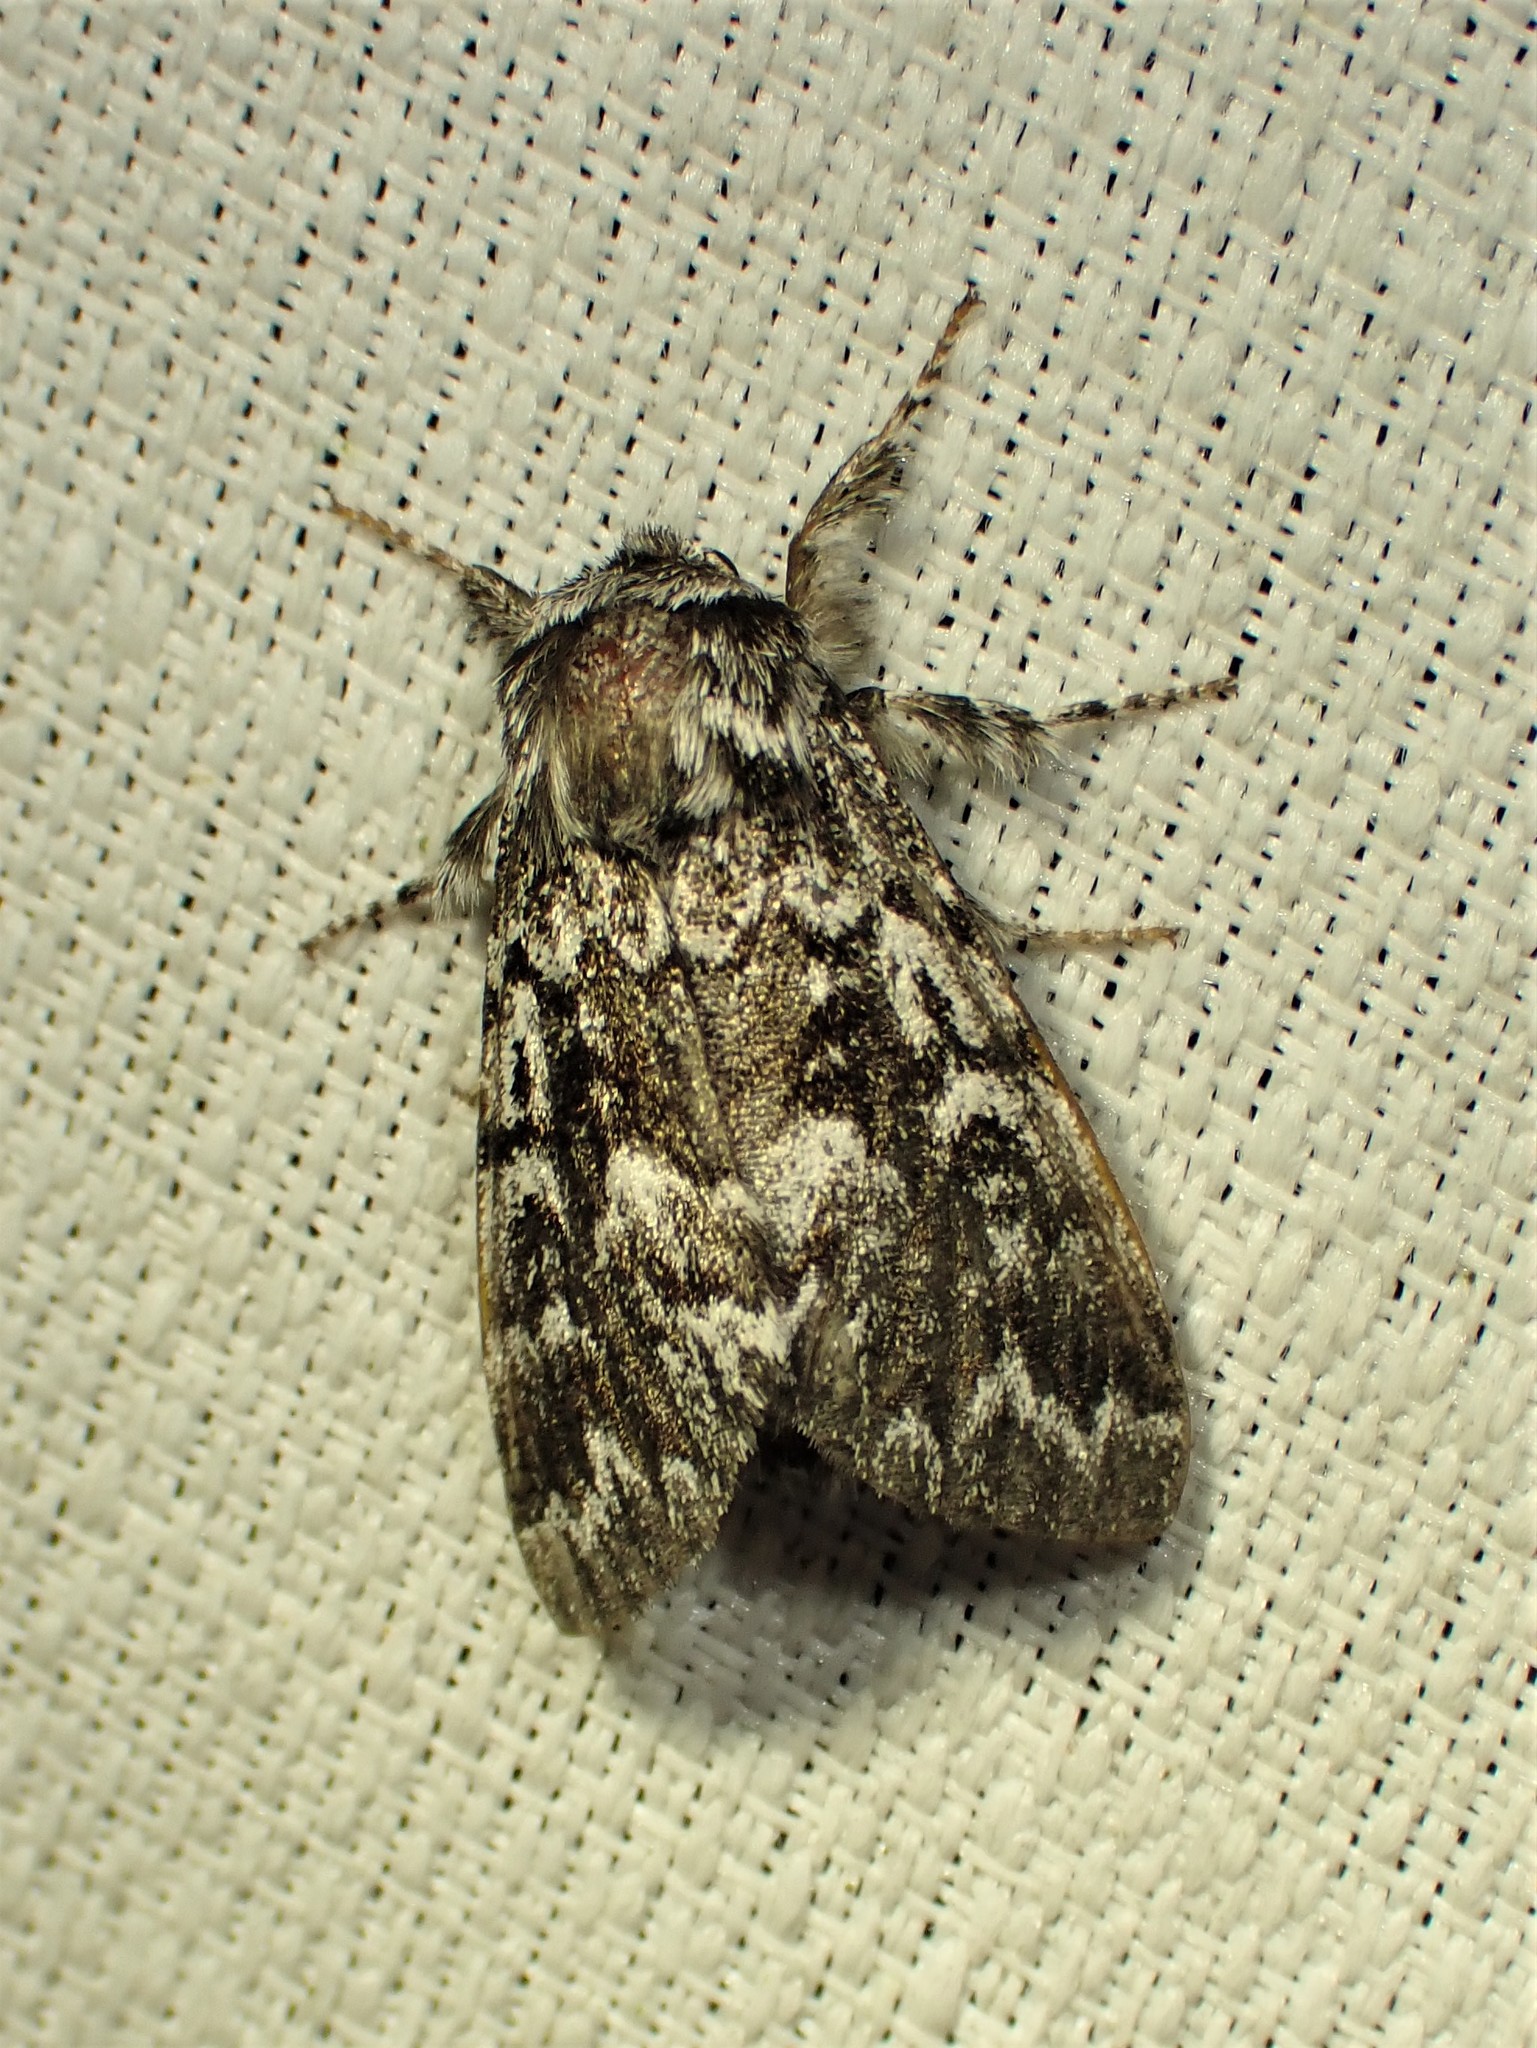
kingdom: Animalia
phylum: Arthropoda
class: Insecta
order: Lepidoptera
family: Noctuidae
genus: Panthea
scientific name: Panthea acronyctoides
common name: Black zigzag moth
